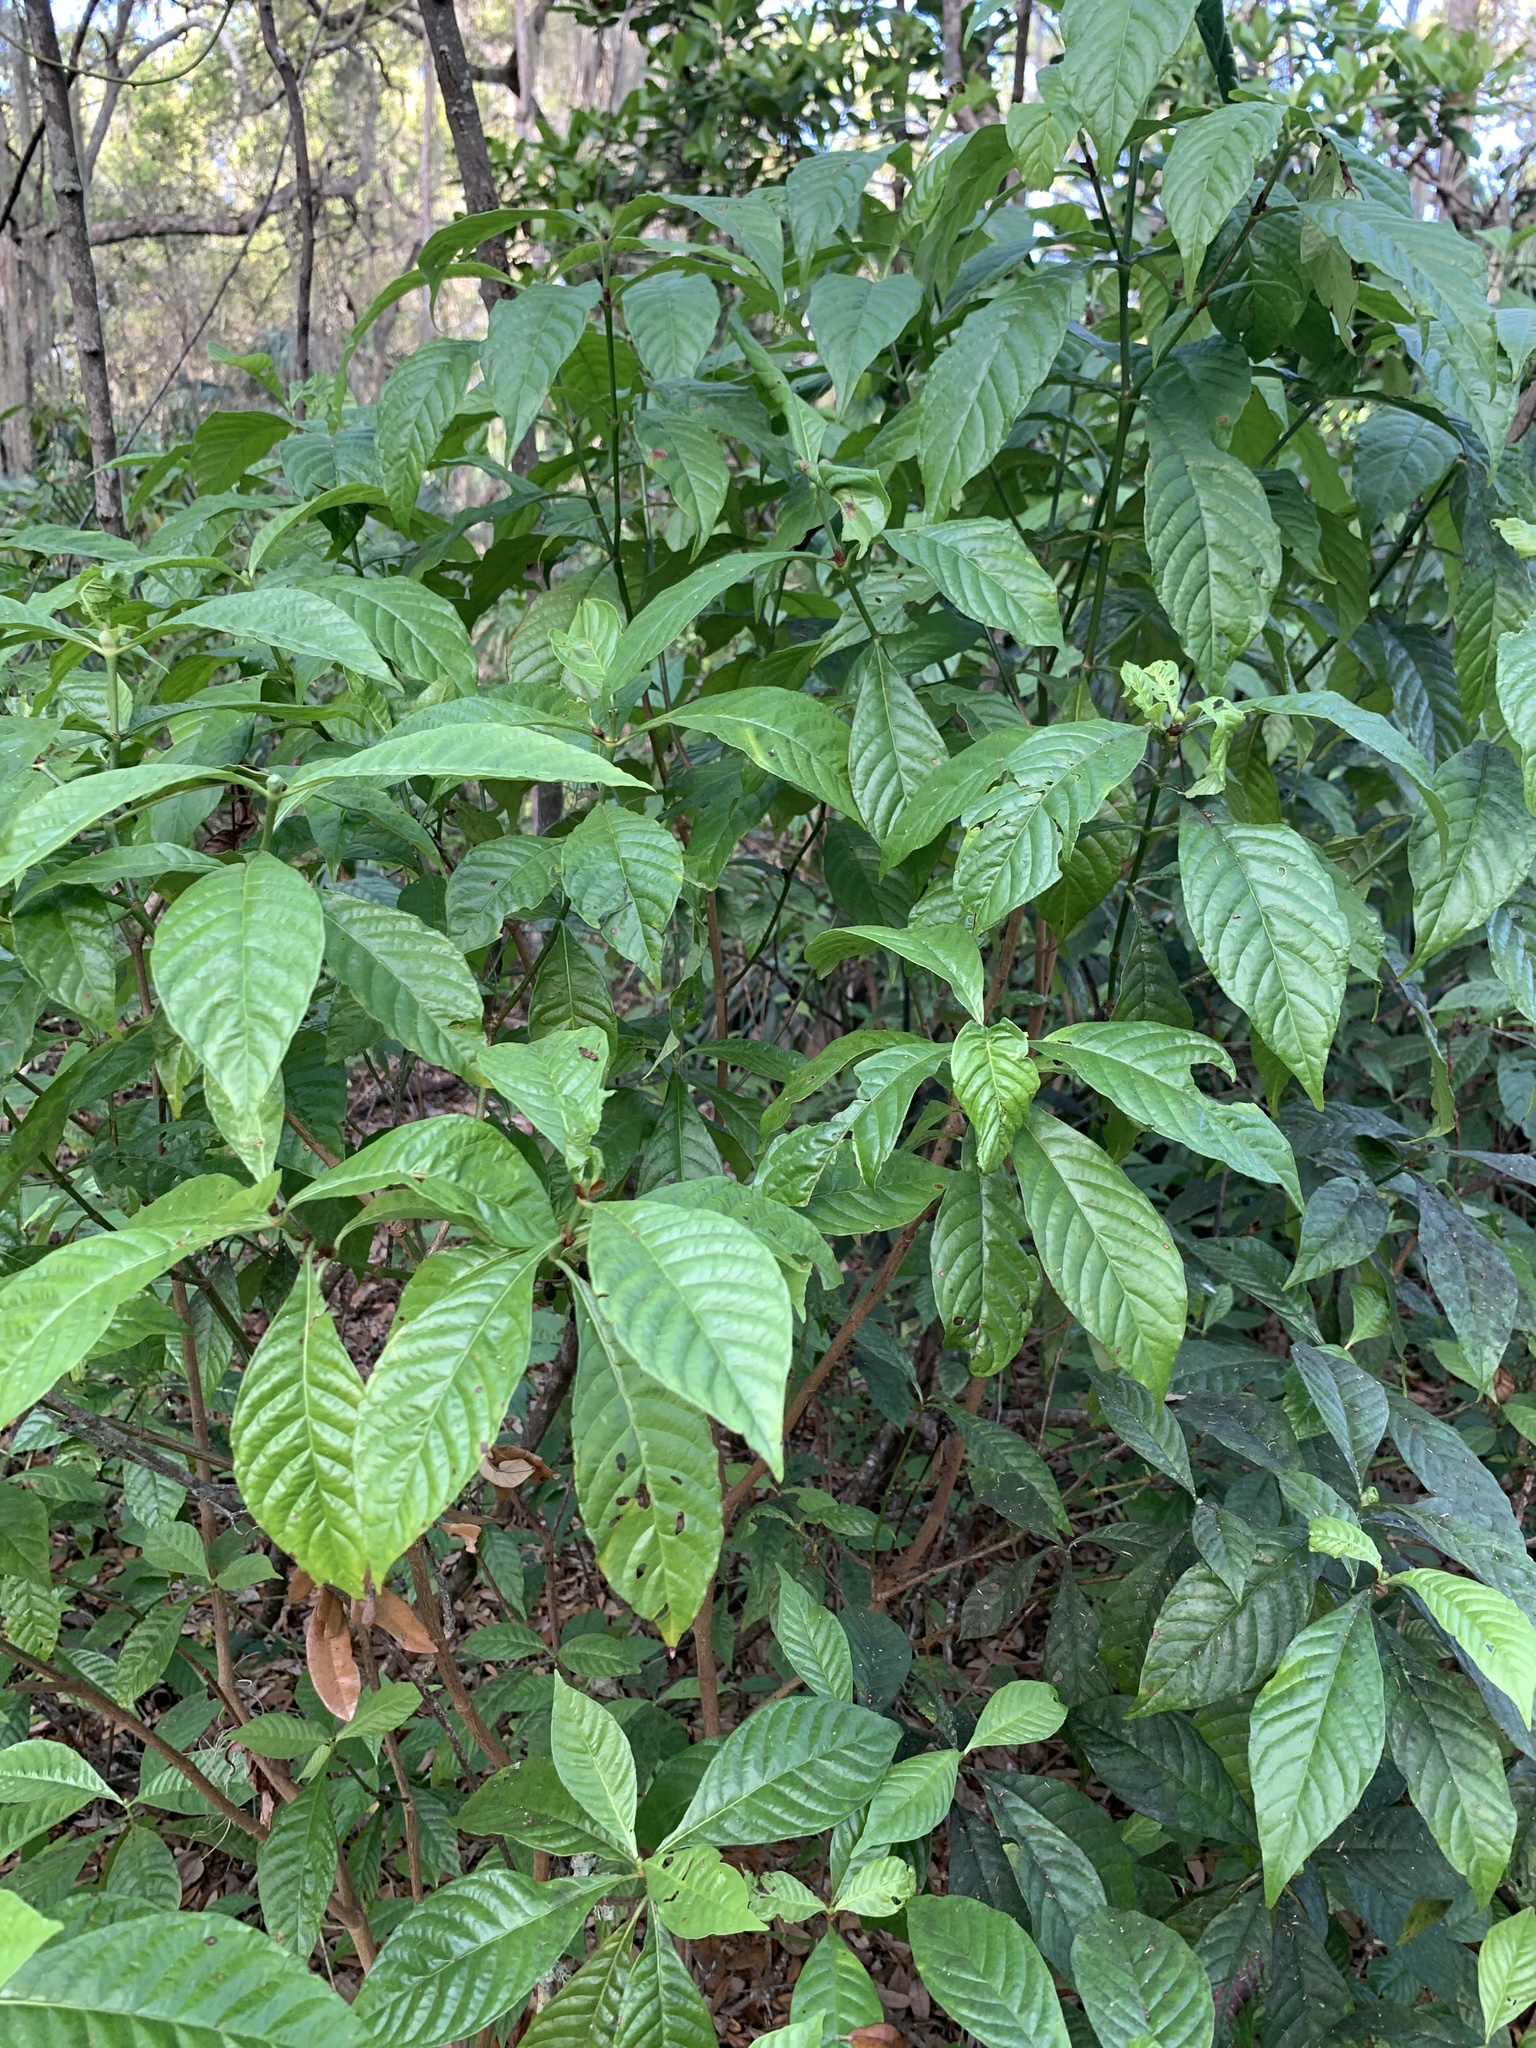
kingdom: Plantae
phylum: Tracheophyta
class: Magnoliopsida
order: Gentianales
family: Rubiaceae
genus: Psychotria
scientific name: Psychotria nervosa
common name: Bastard cankerberry
